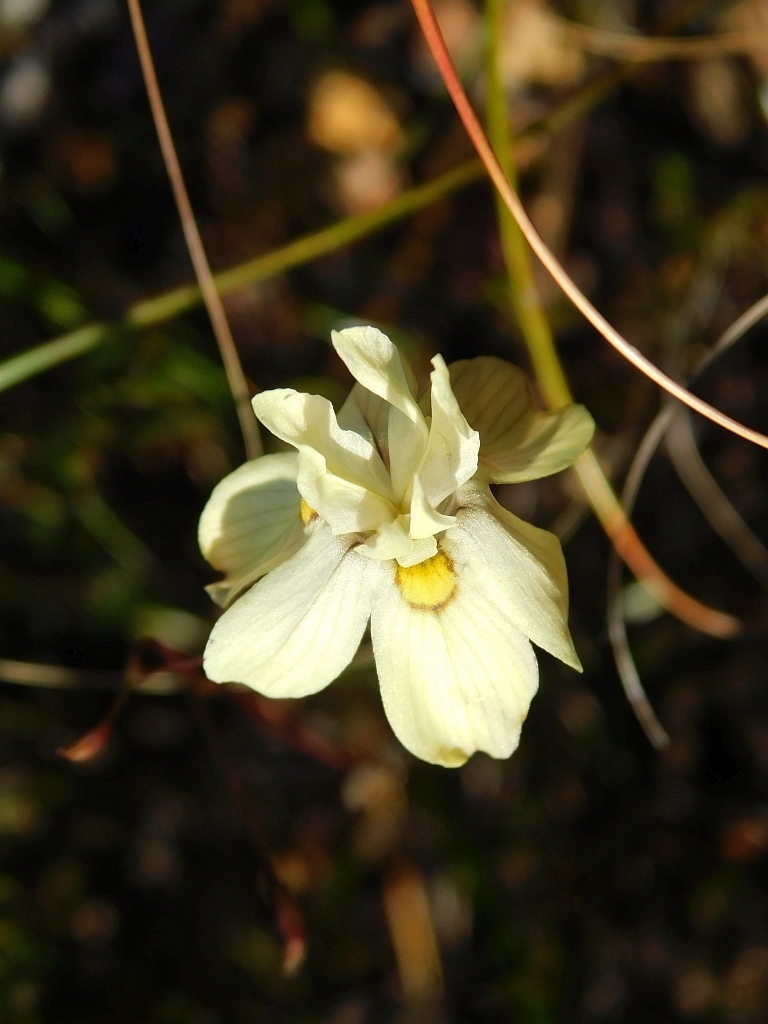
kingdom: Plantae
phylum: Tracheophyta
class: Liliopsida
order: Asparagales
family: Iridaceae
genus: Moraea
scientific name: Moraea gawleri
